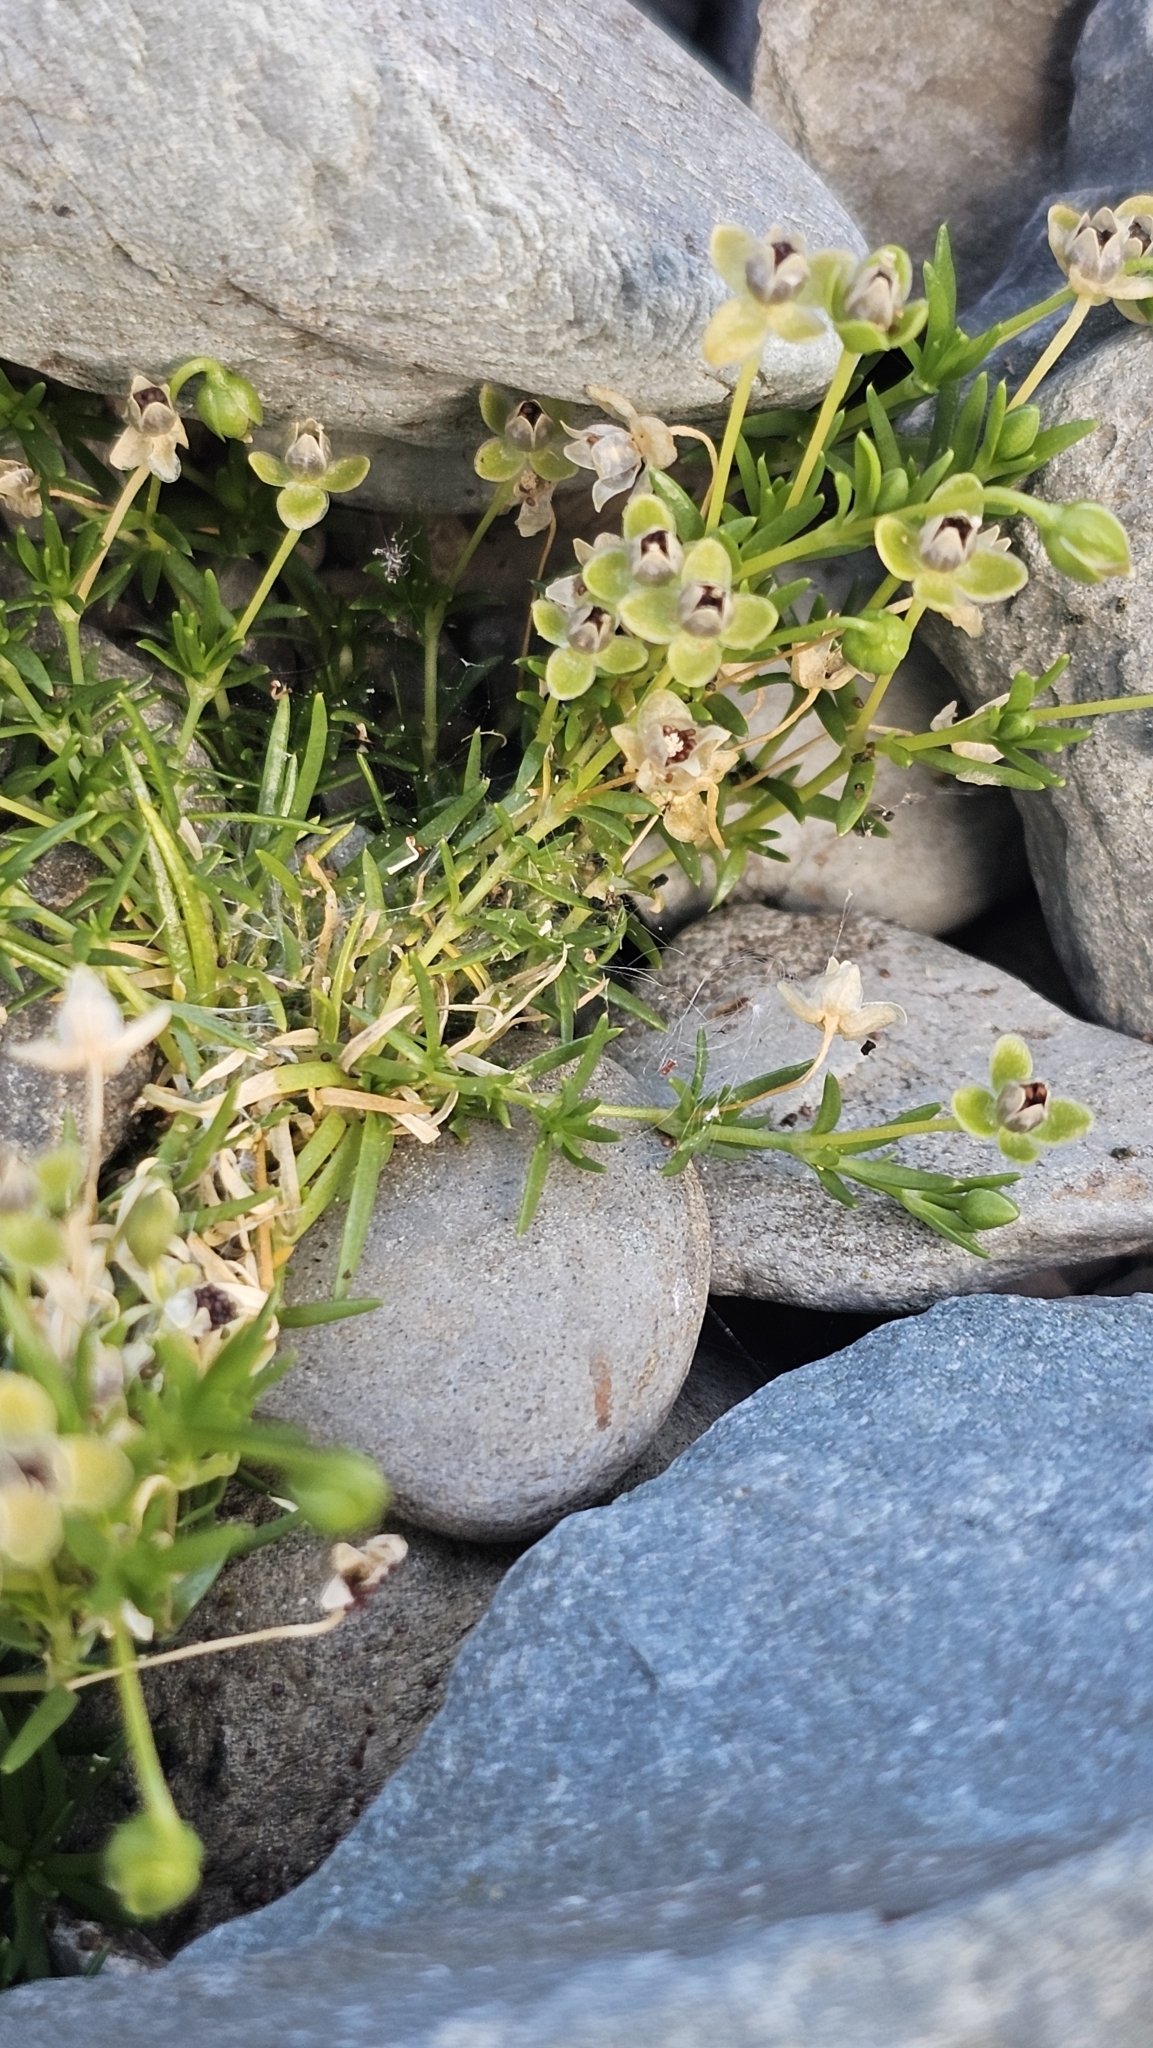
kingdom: Plantae
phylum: Tracheophyta
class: Magnoliopsida
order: Caryophyllales
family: Caryophyllaceae
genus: Sagina
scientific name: Sagina procumbens
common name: Procumbent pearlwort
